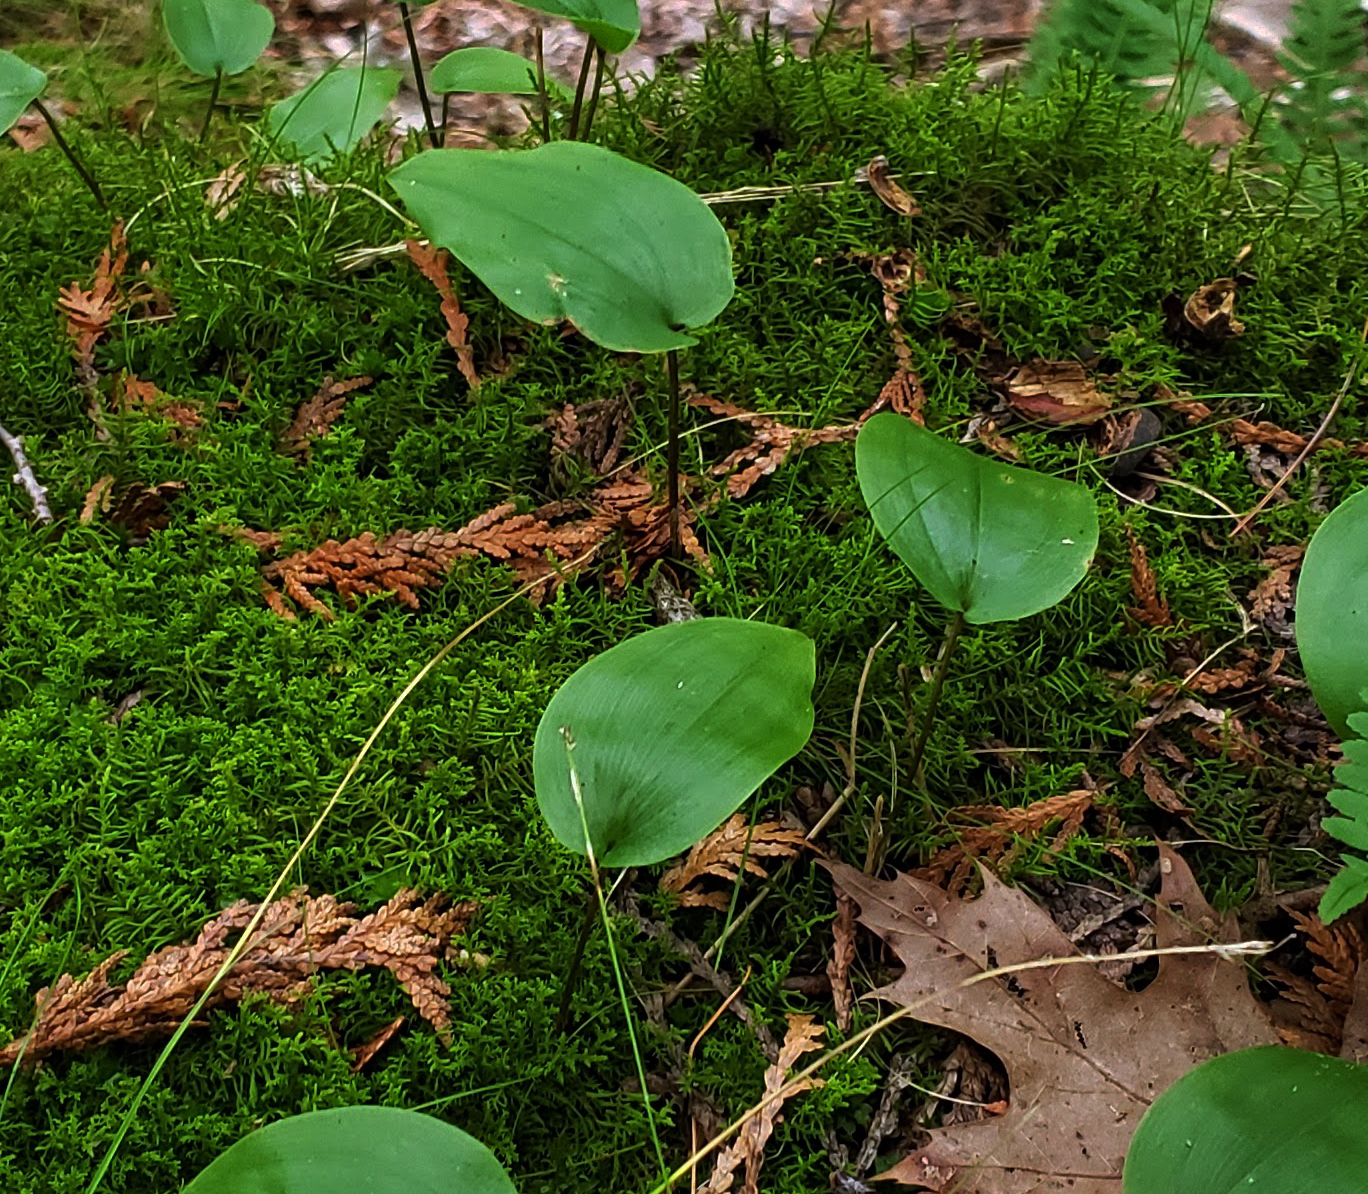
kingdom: Plantae
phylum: Tracheophyta
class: Liliopsida
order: Asparagales
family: Asparagaceae
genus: Maianthemum
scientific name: Maianthemum canadense
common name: False lily-of-the-valley
